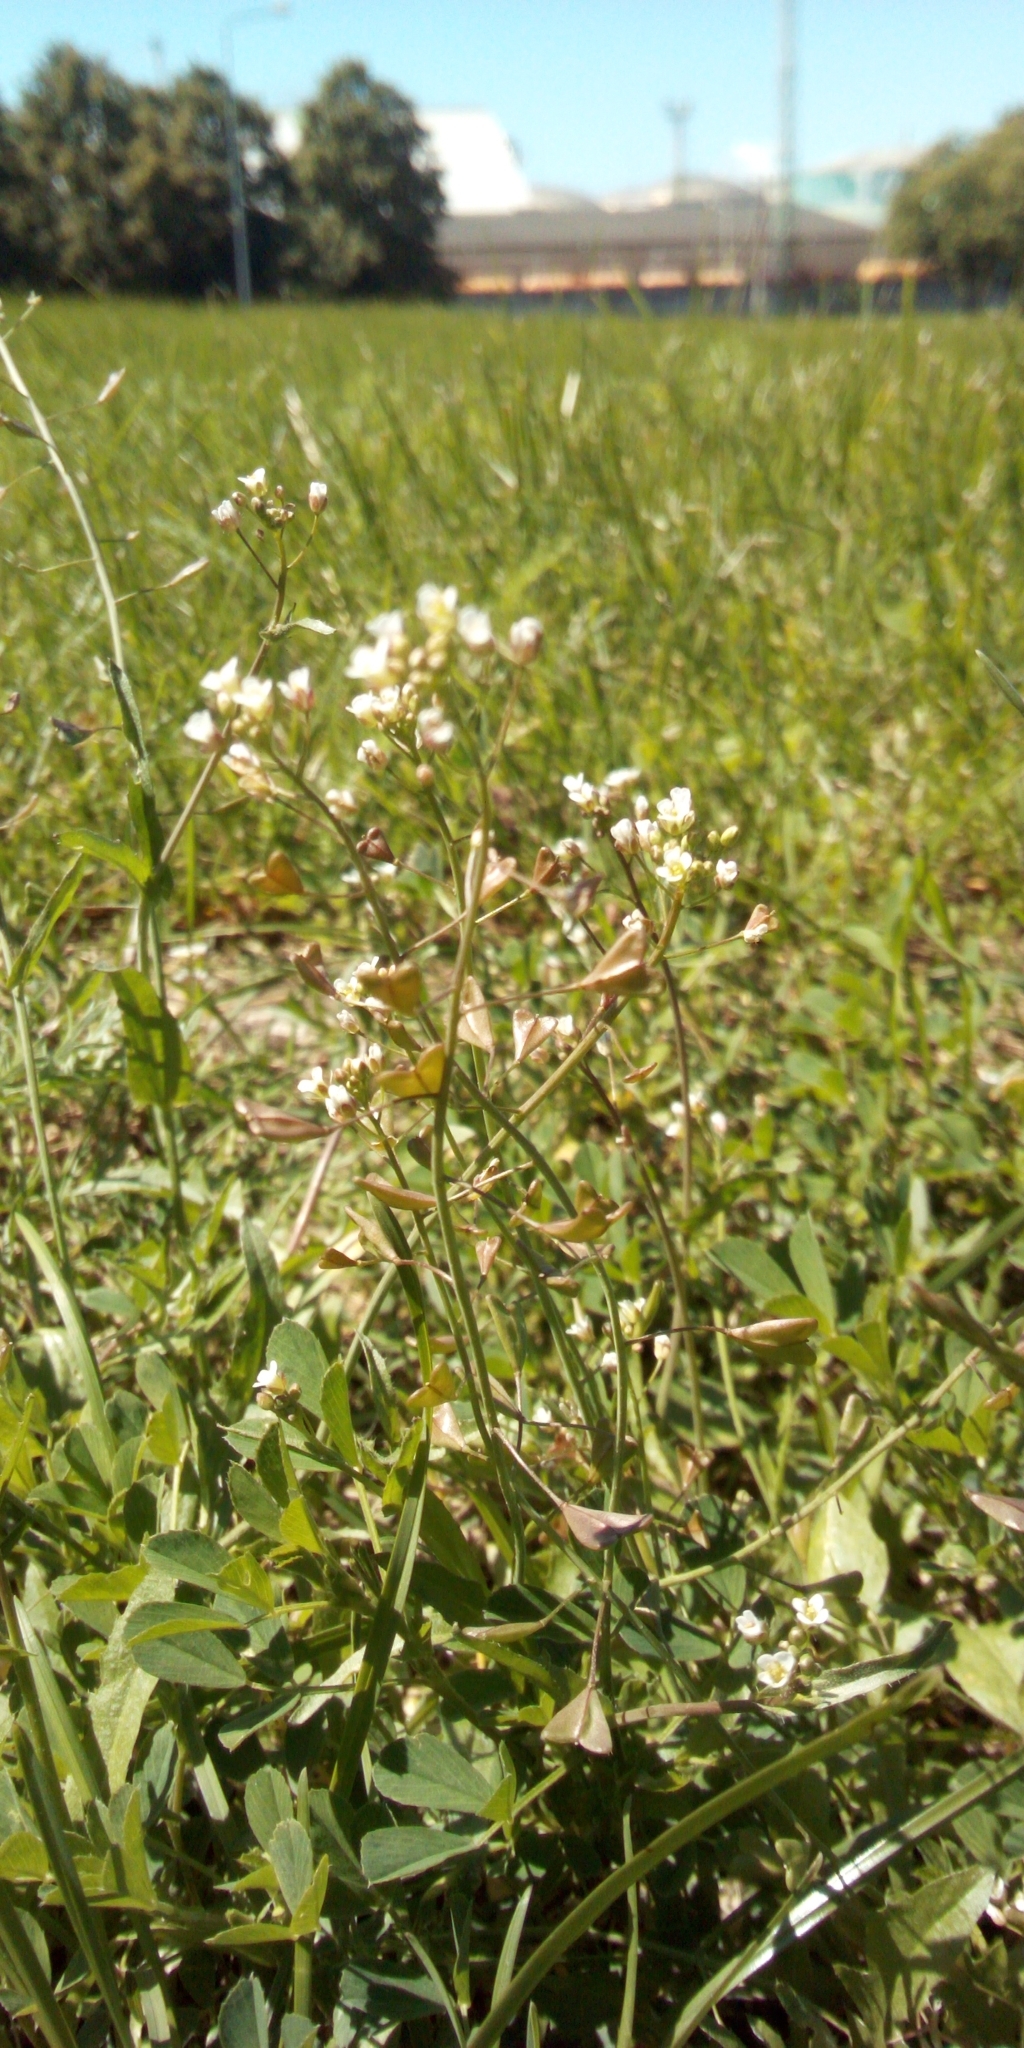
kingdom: Plantae
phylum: Tracheophyta
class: Magnoliopsida
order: Brassicales
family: Brassicaceae
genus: Capsella
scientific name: Capsella bursa-pastoris
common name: Shepherd's purse
